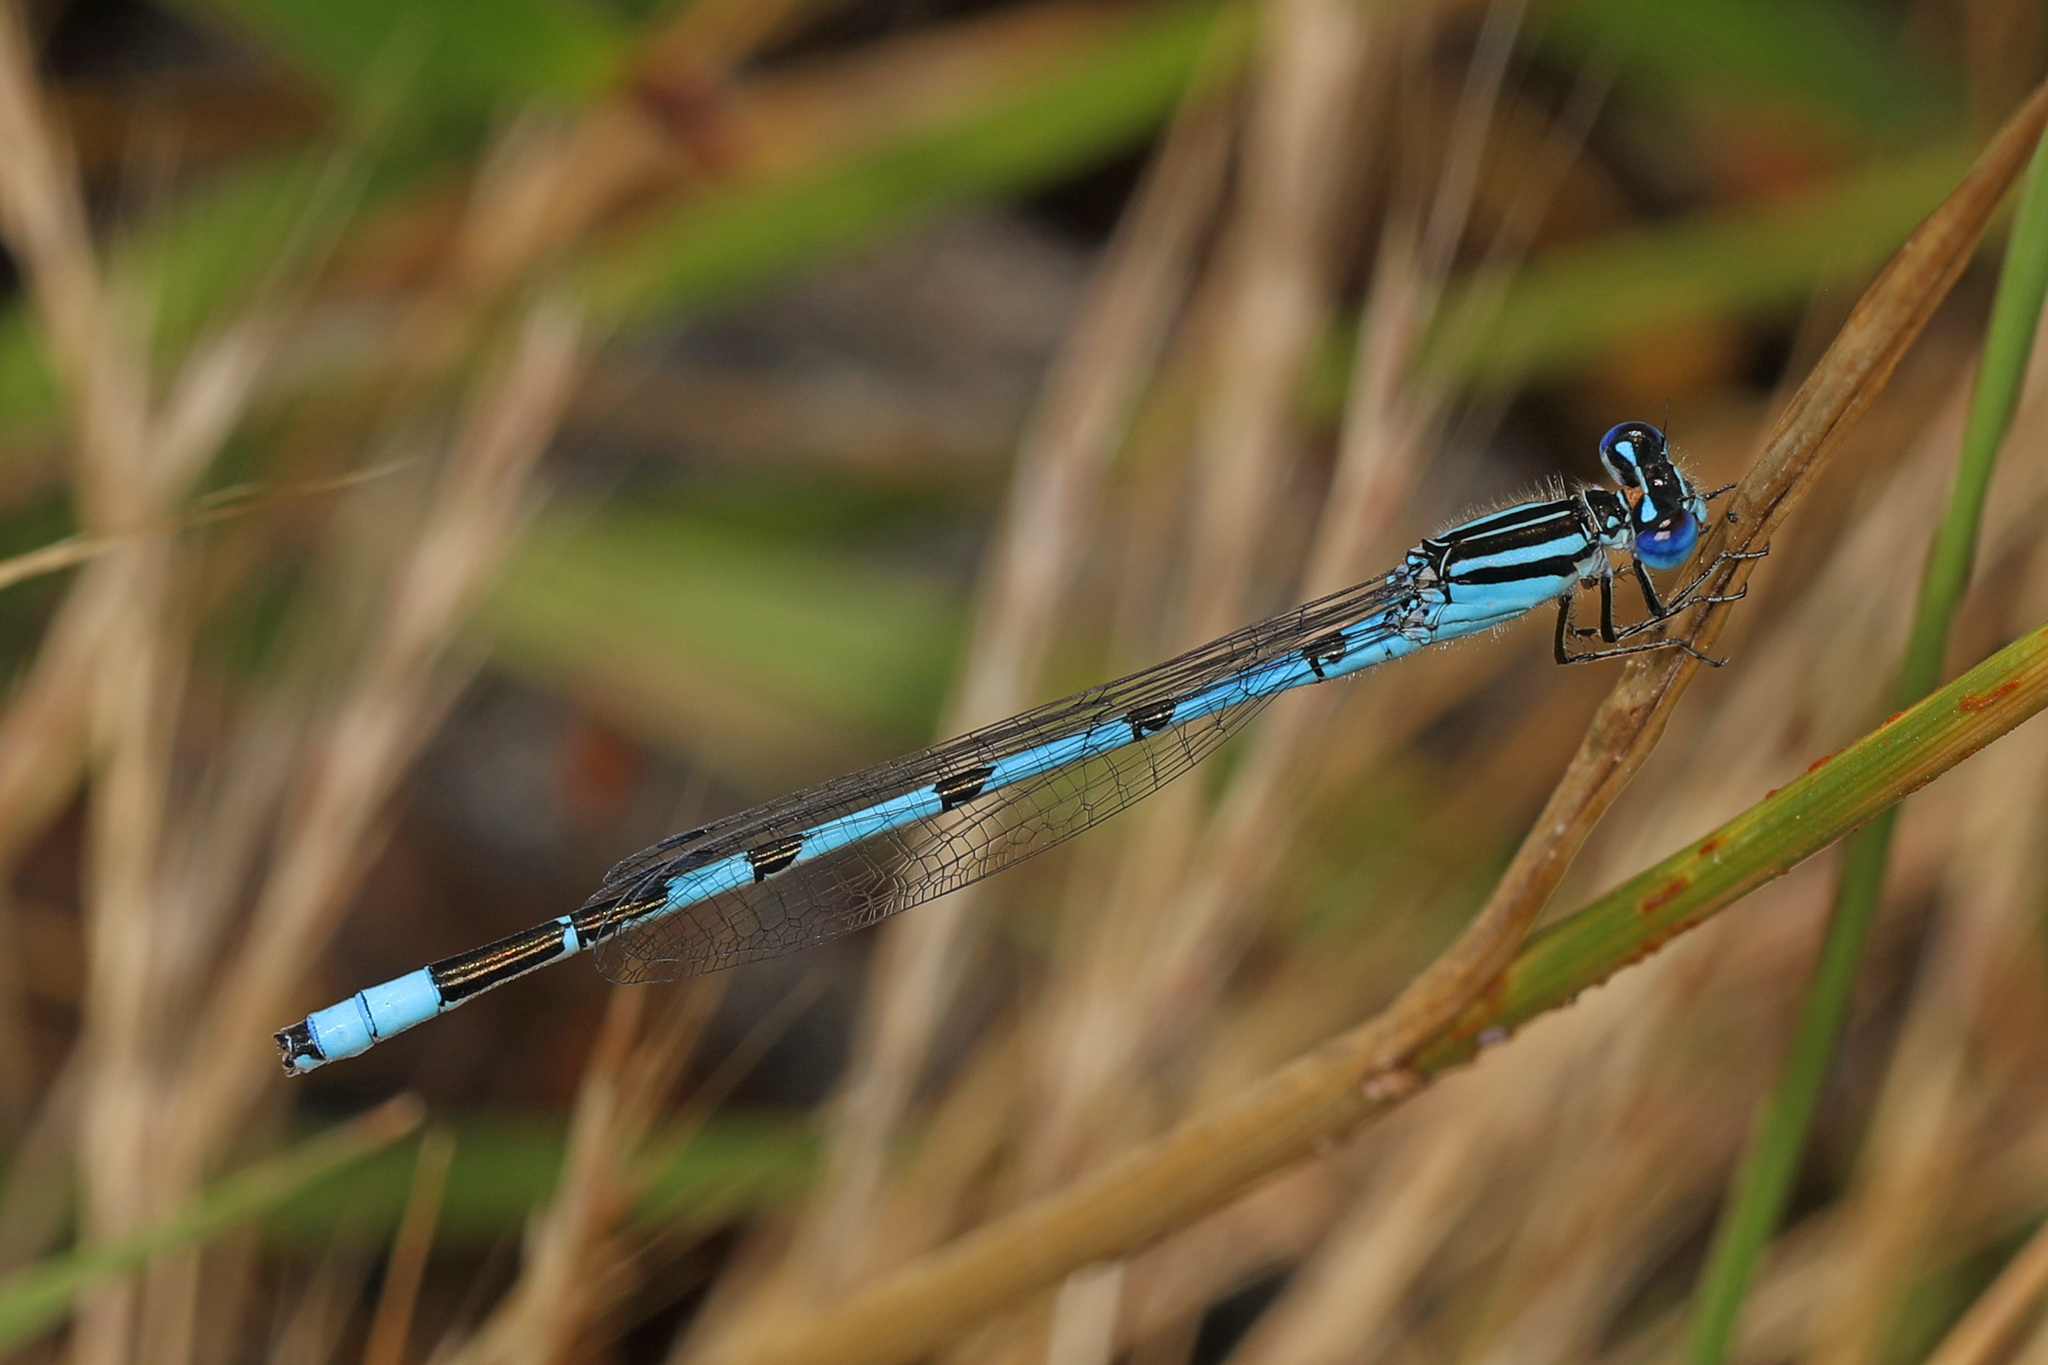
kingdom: Animalia
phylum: Arthropoda
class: Insecta
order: Odonata
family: Coenagrionidae
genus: Enallagma
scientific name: Enallagma durum
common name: Big bluet
